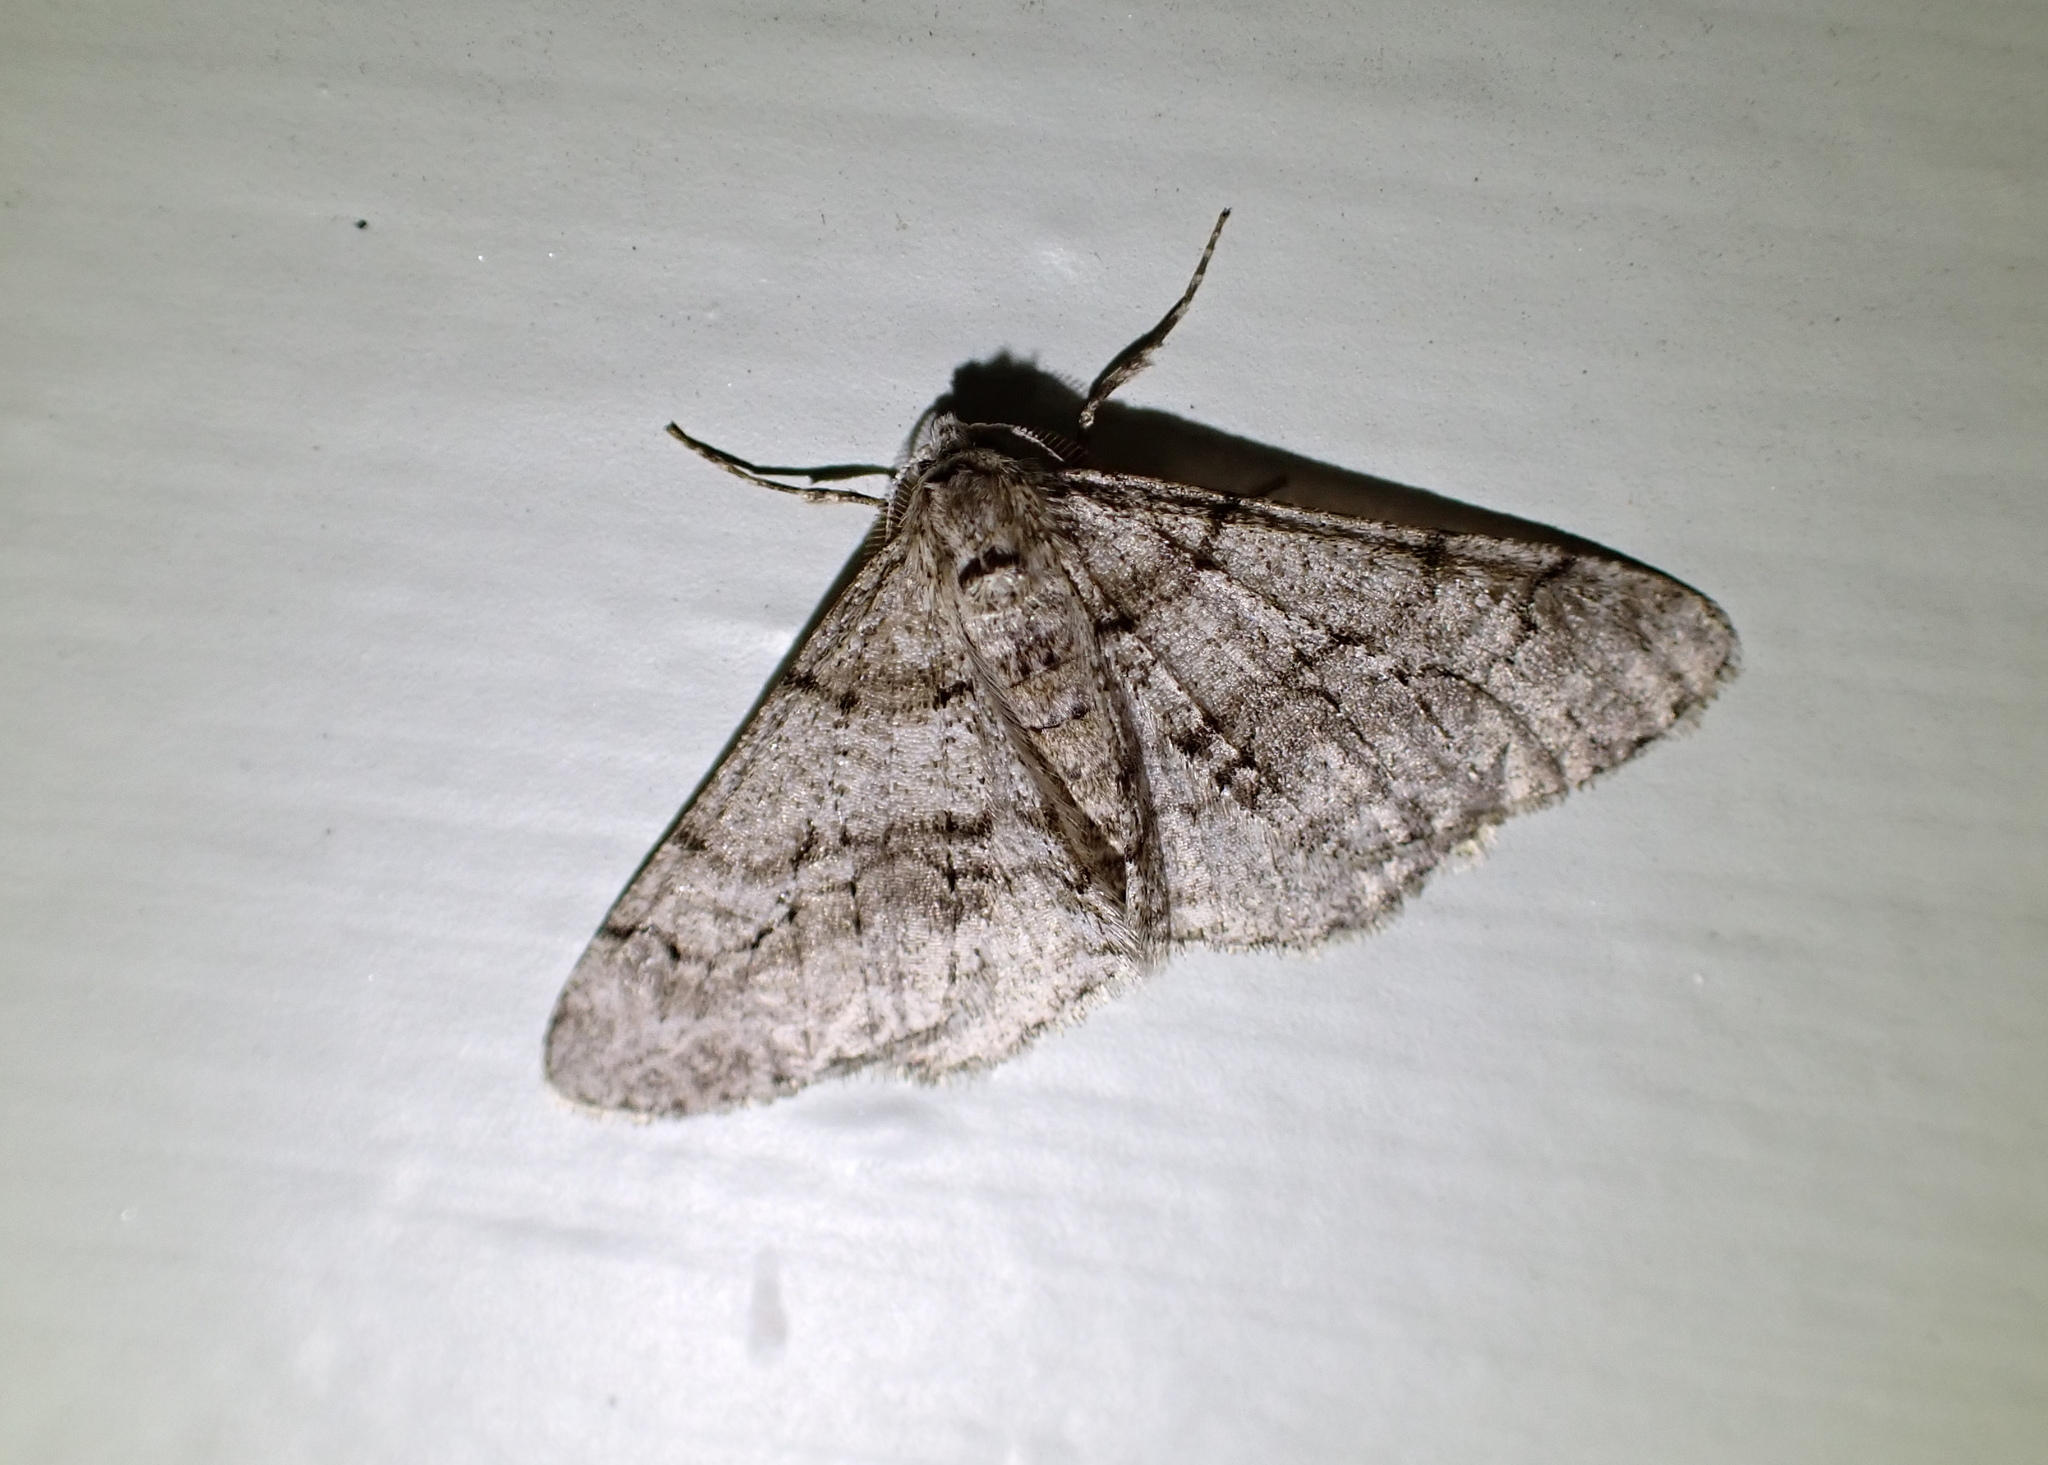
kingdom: Animalia
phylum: Arthropoda
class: Insecta
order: Lepidoptera
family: Geometridae
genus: Phigalia
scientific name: Phigalia titea
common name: Spiny looper
